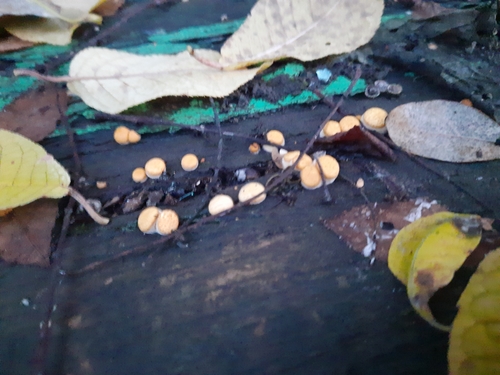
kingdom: Fungi
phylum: Basidiomycota
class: Agaricomycetes
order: Agaricales
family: Nidulariaceae
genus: Crucibulum
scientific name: Crucibulum laeve
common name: Common bird's nest
